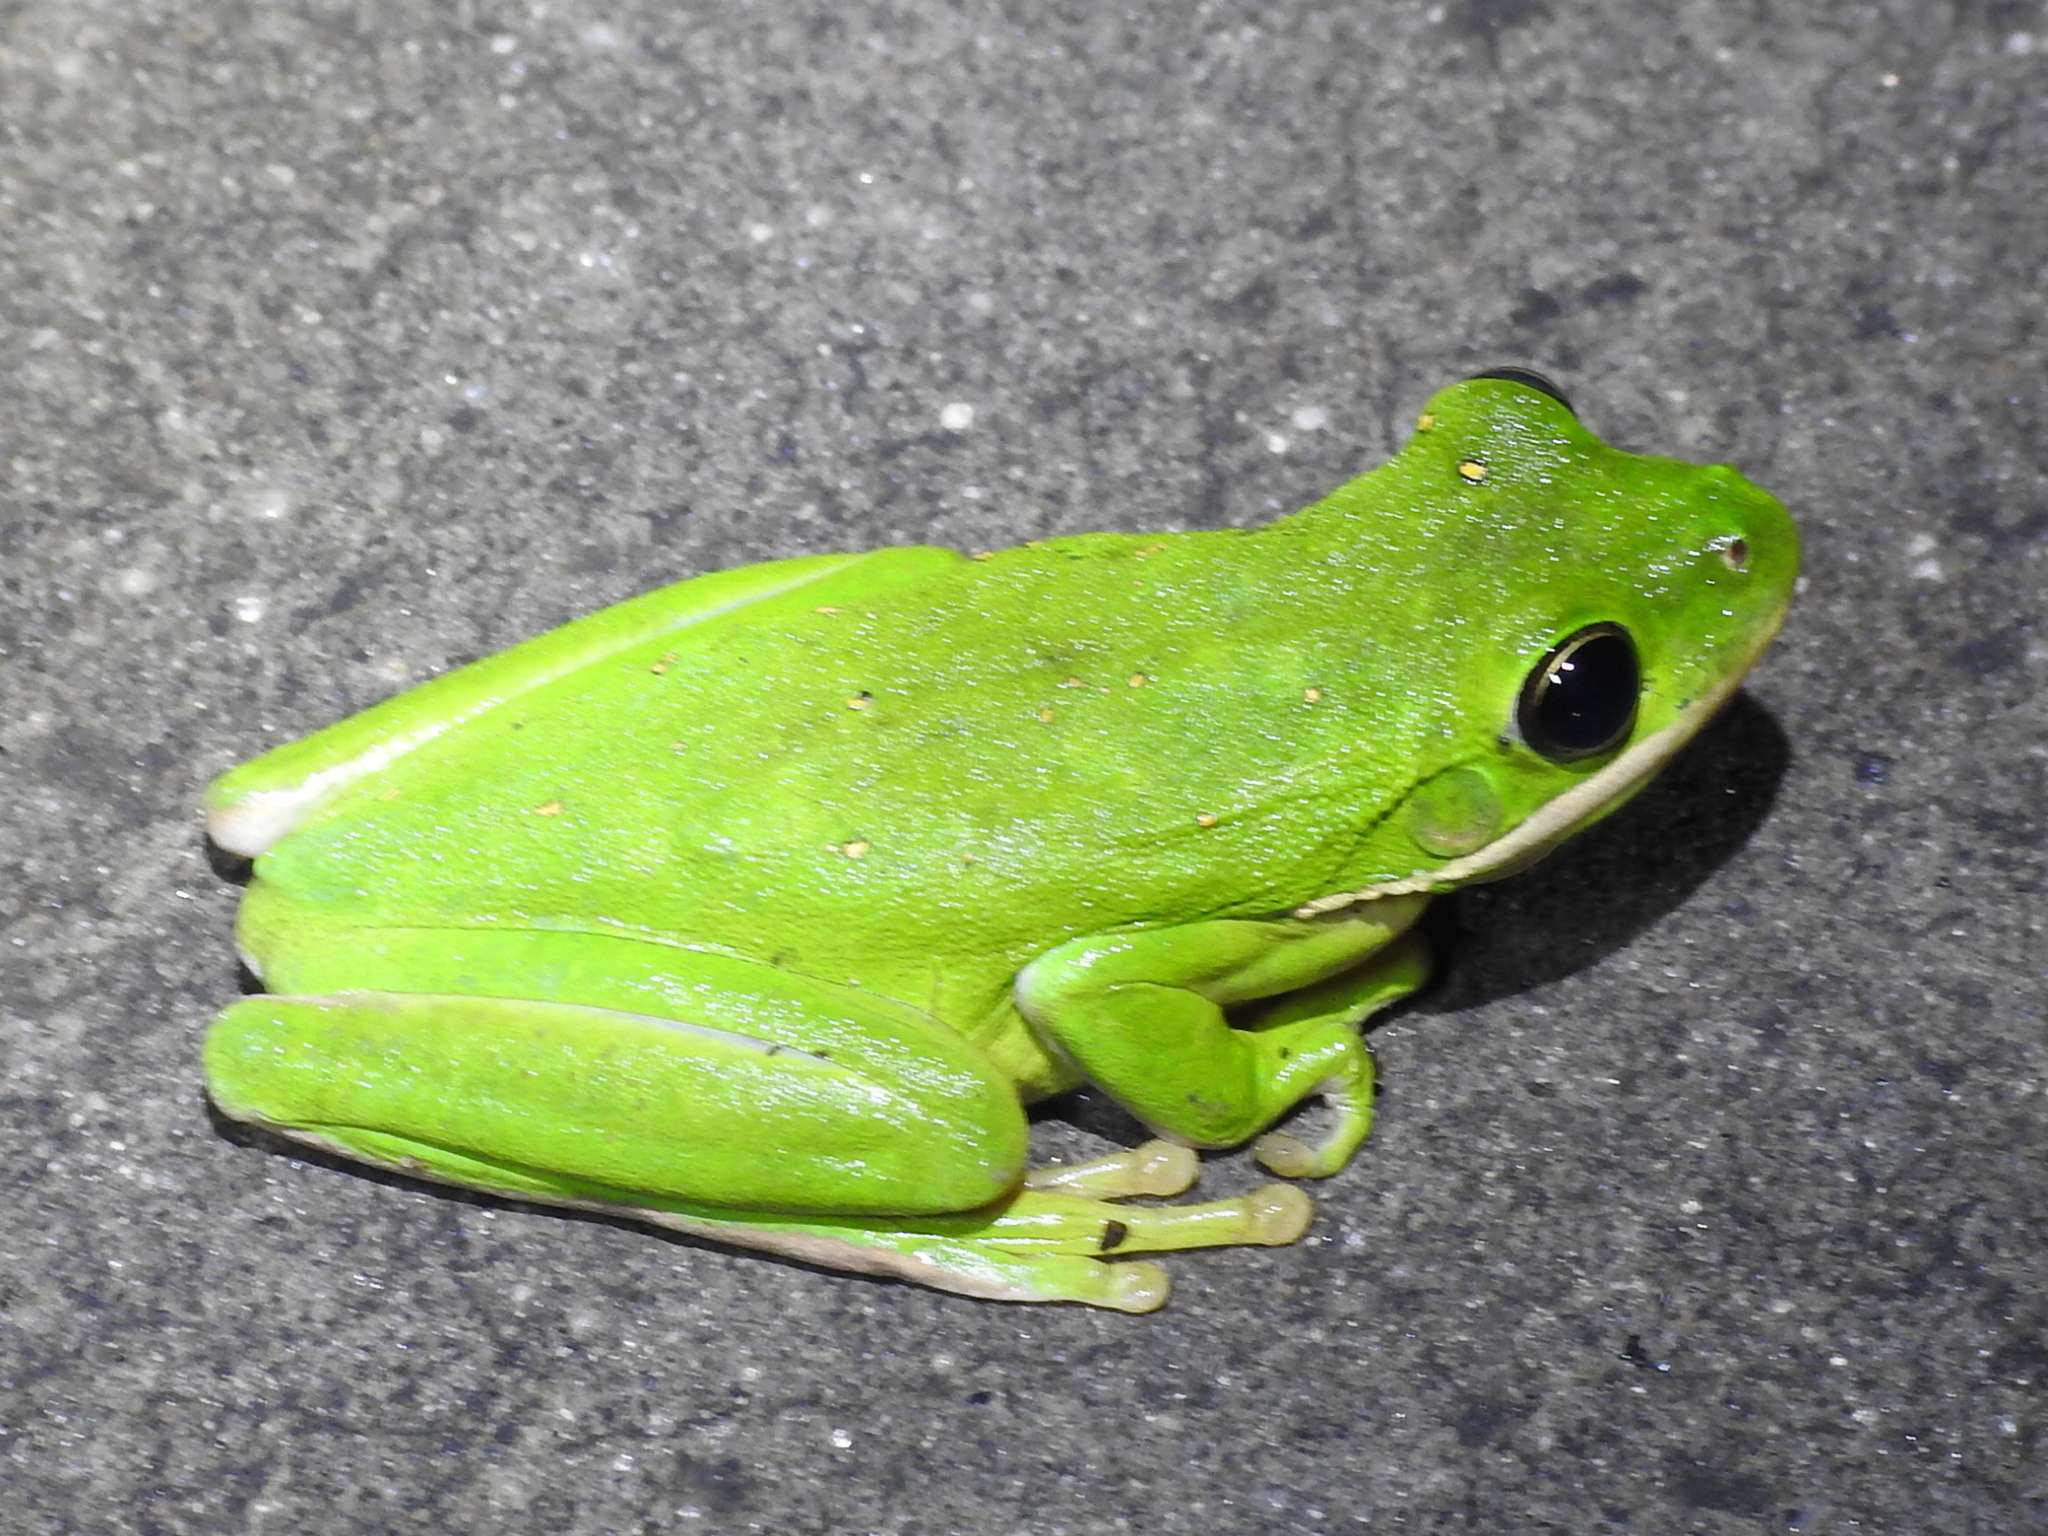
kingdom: Animalia
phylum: Chordata
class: Amphibia
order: Anura
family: Hylidae
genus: Dryophytes
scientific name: Dryophytes cinereus
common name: Green treefrog
